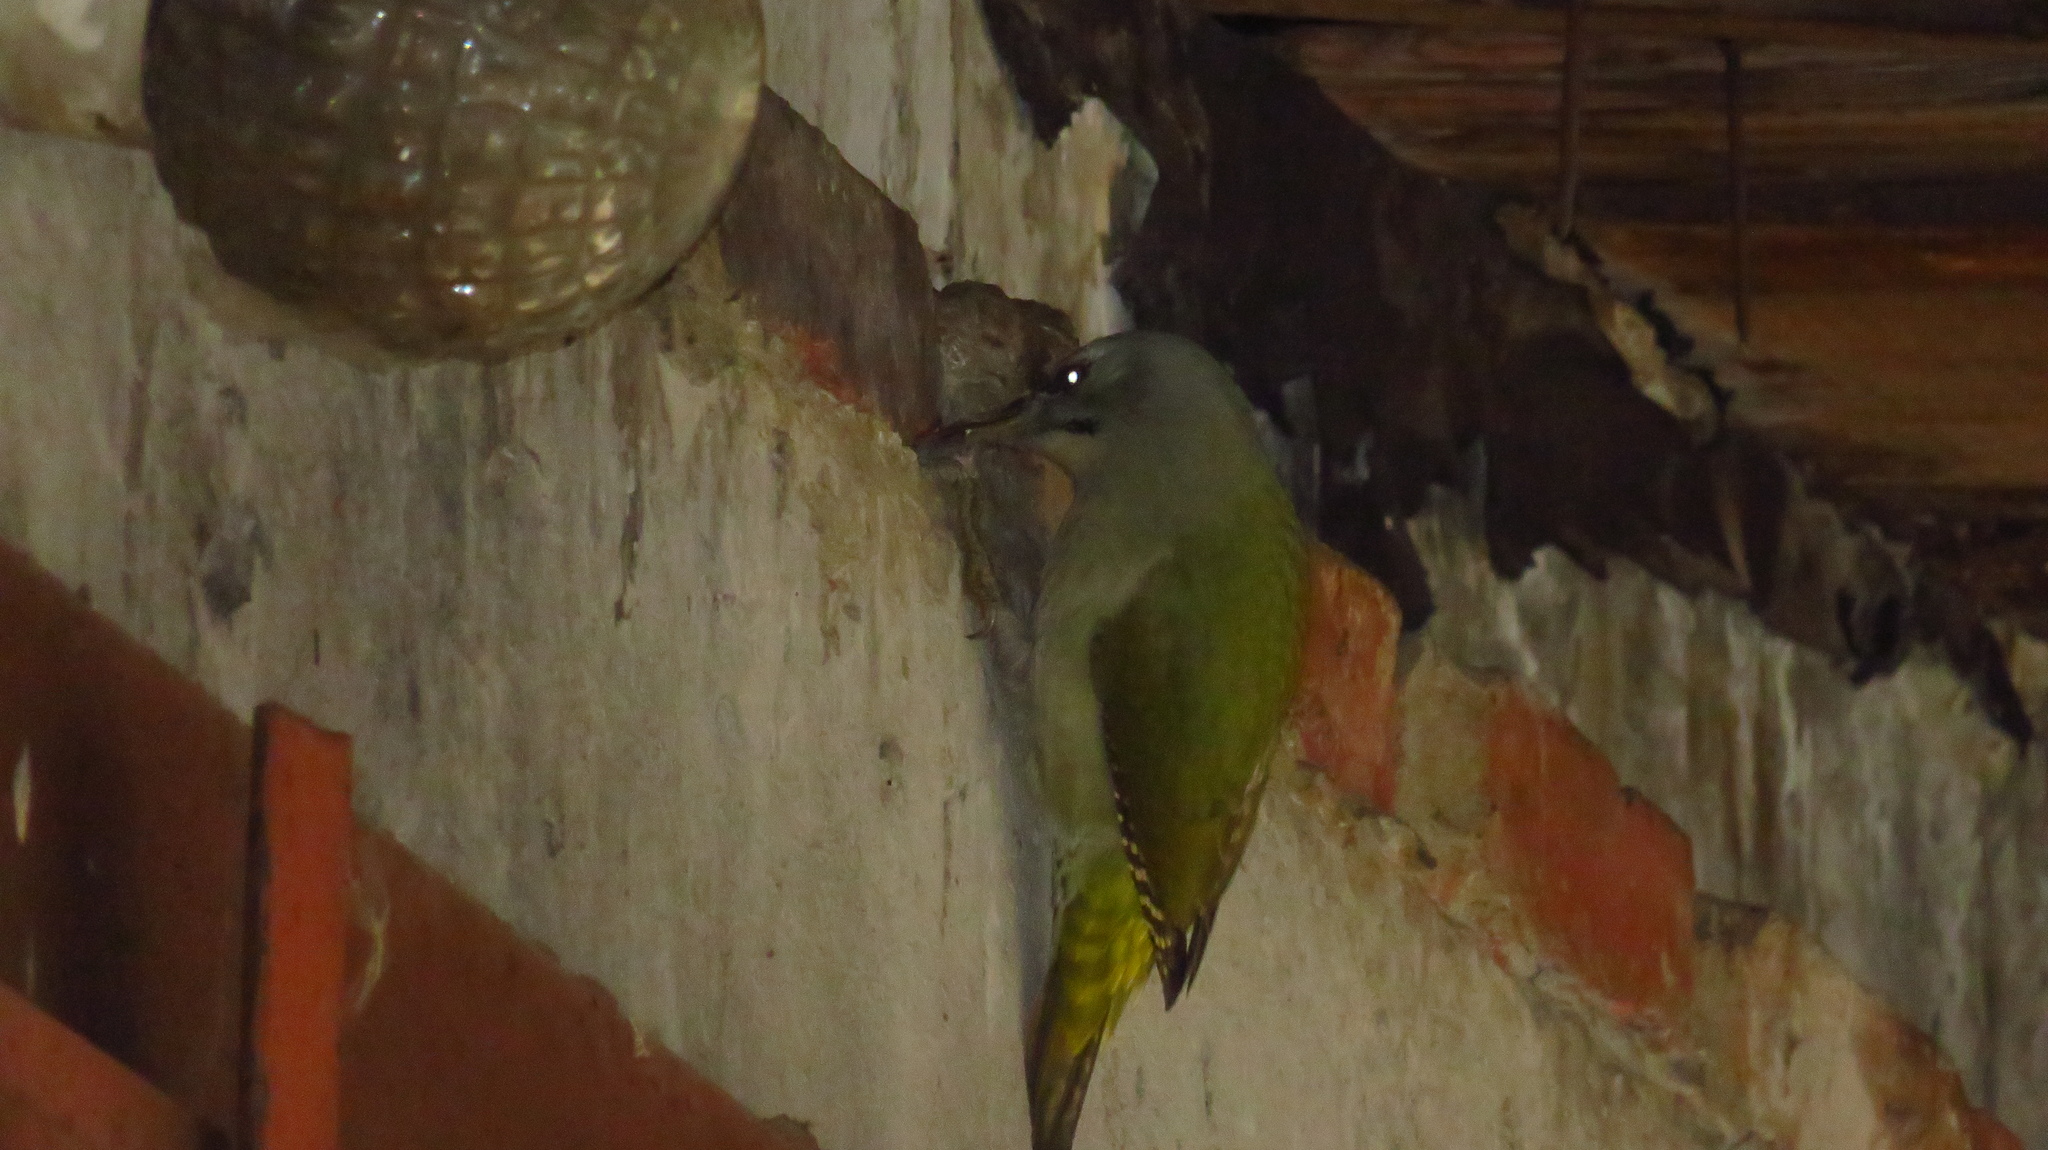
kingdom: Animalia
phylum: Chordata
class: Aves
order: Piciformes
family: Picidae
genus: Picus
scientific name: Picus canus
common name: Grey-headed woodpecker
